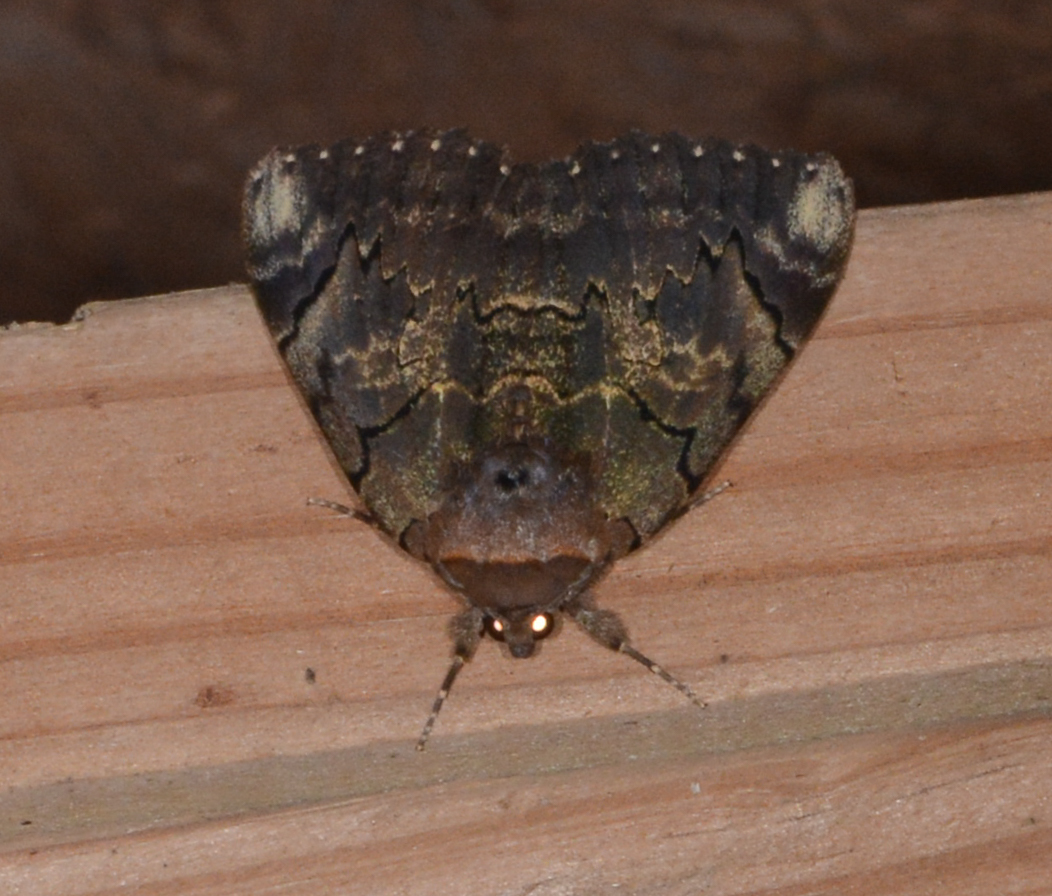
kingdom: Animalia
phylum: Arthropoda
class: Insecta
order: Lepidoptera
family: Erebidae
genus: Catocala
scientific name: Catocala carissima
